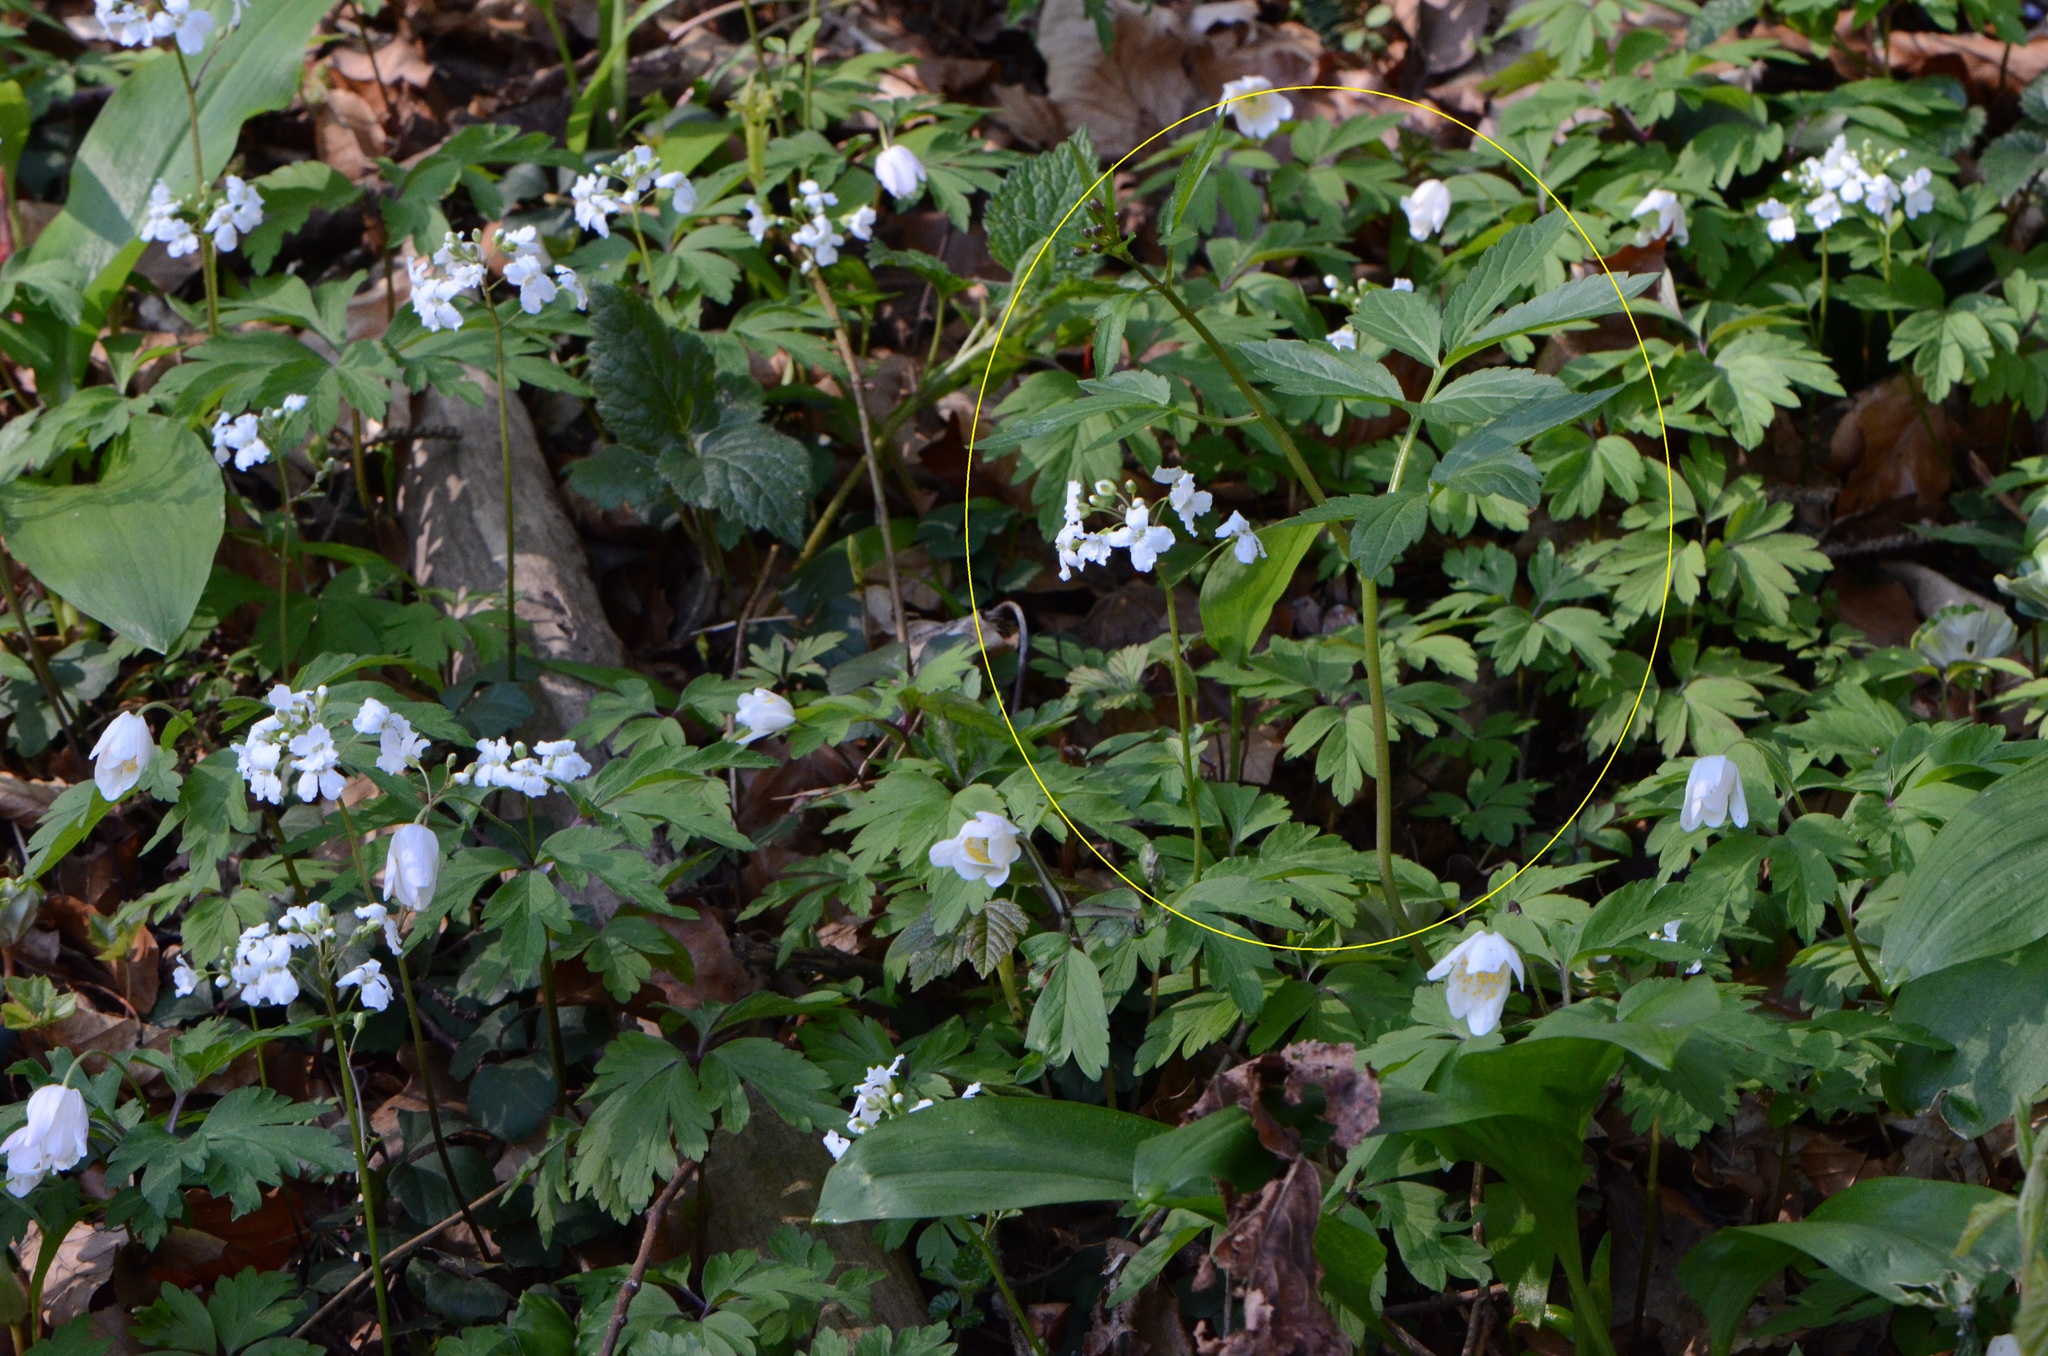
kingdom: Plantae
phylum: Tracheophyta
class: Magnoliopsida
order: Brassicales
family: Brassicaceae
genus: Cardamine
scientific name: Cardamine bulbifera
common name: Coralroot bittercress
